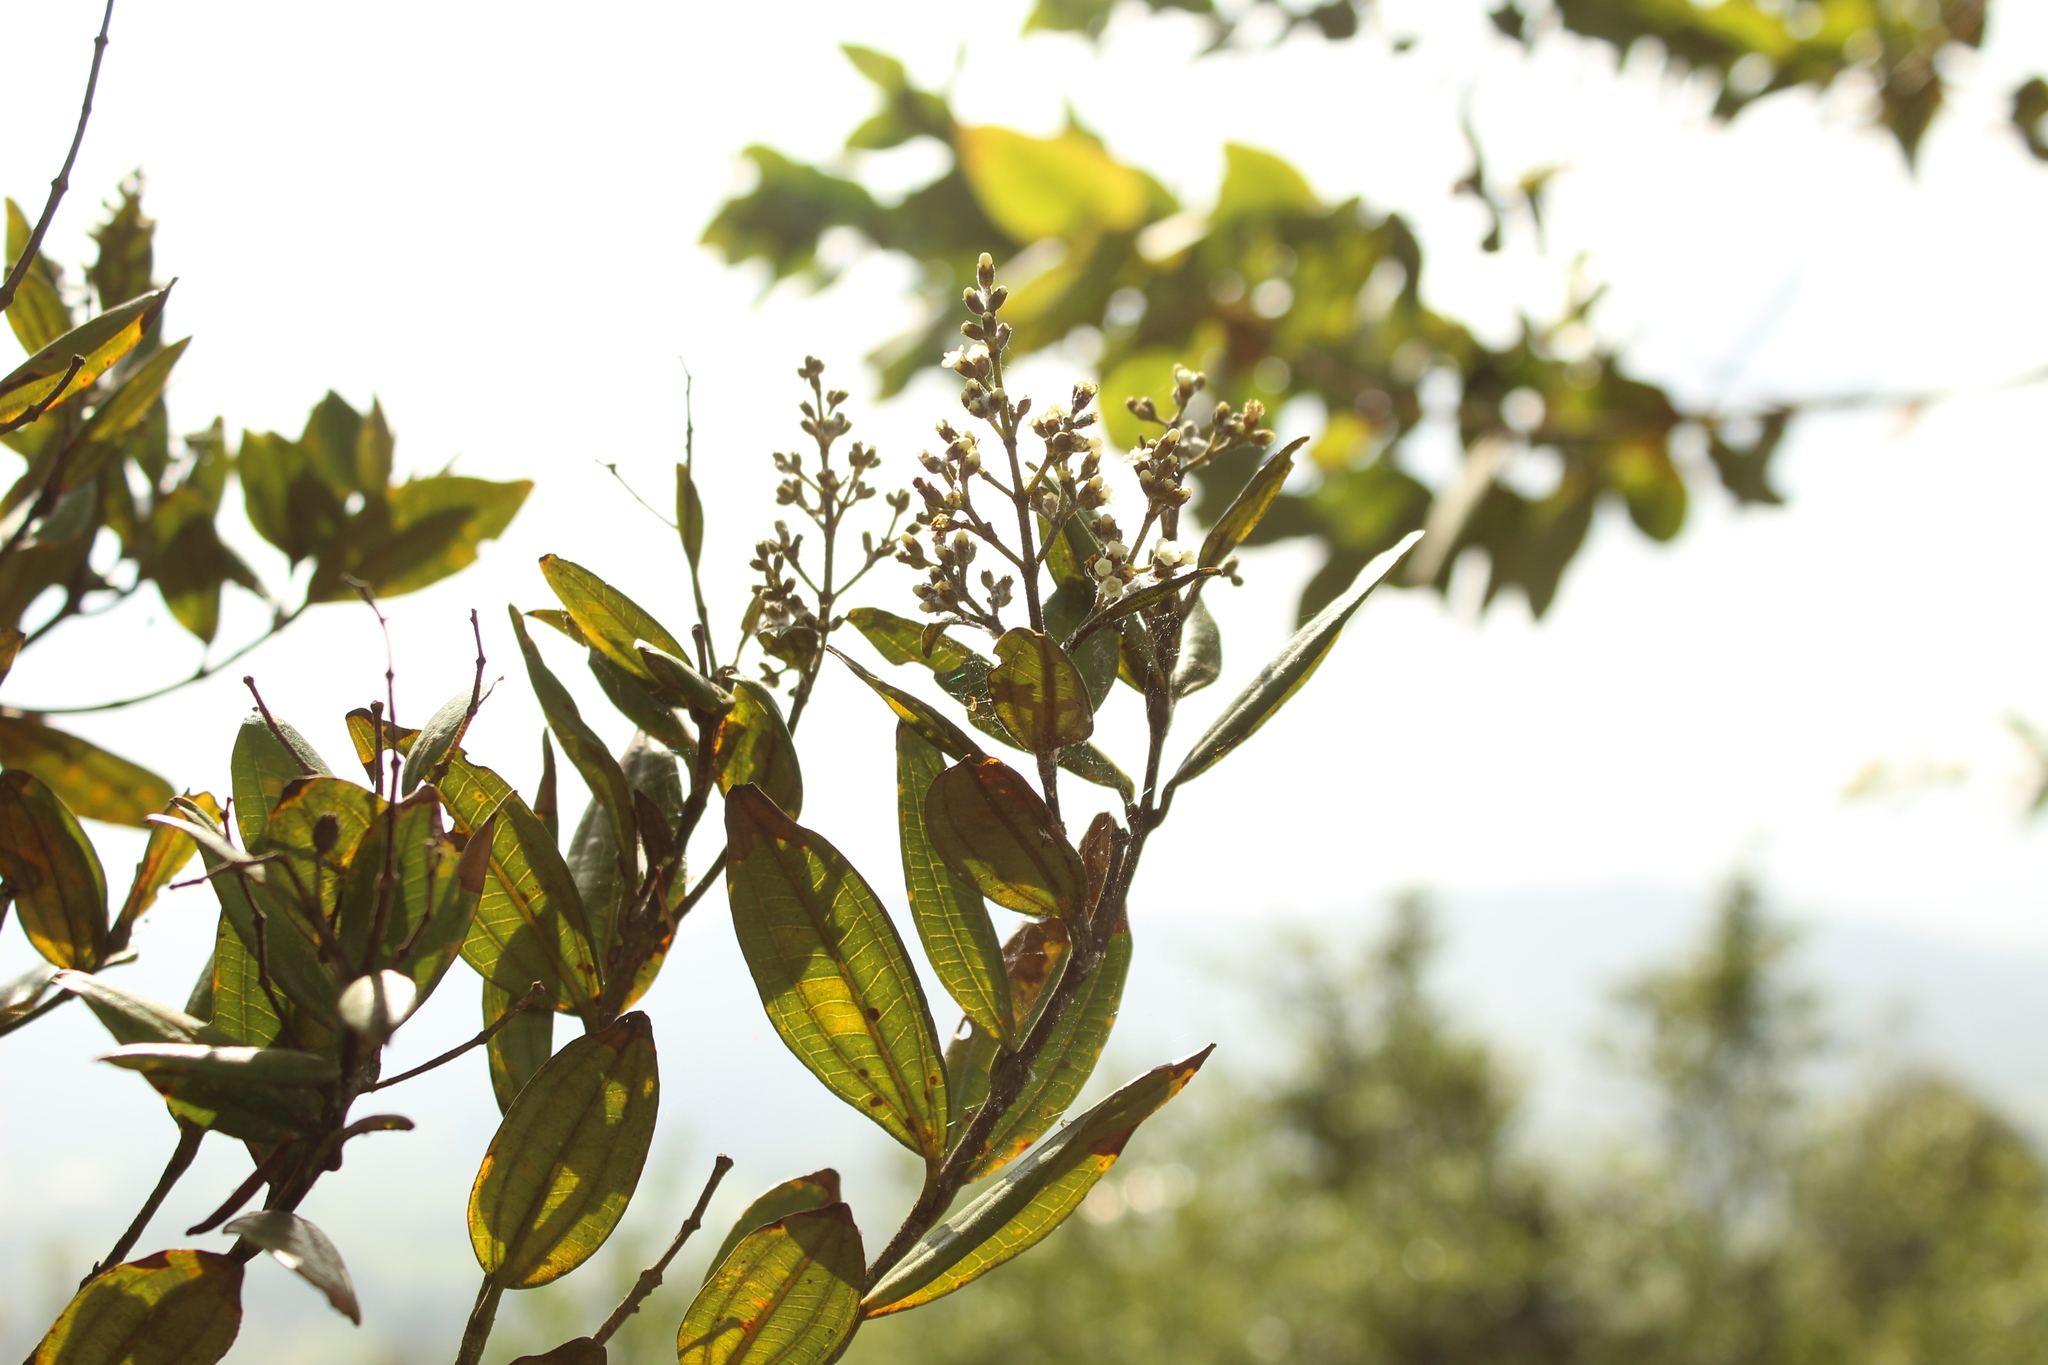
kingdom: Plantae
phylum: Tracheophyta
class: Magnoliopsida
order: Myrtales
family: Melastomataceae
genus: Miconia
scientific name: Miconia squamulosa
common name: Squamulose maya
